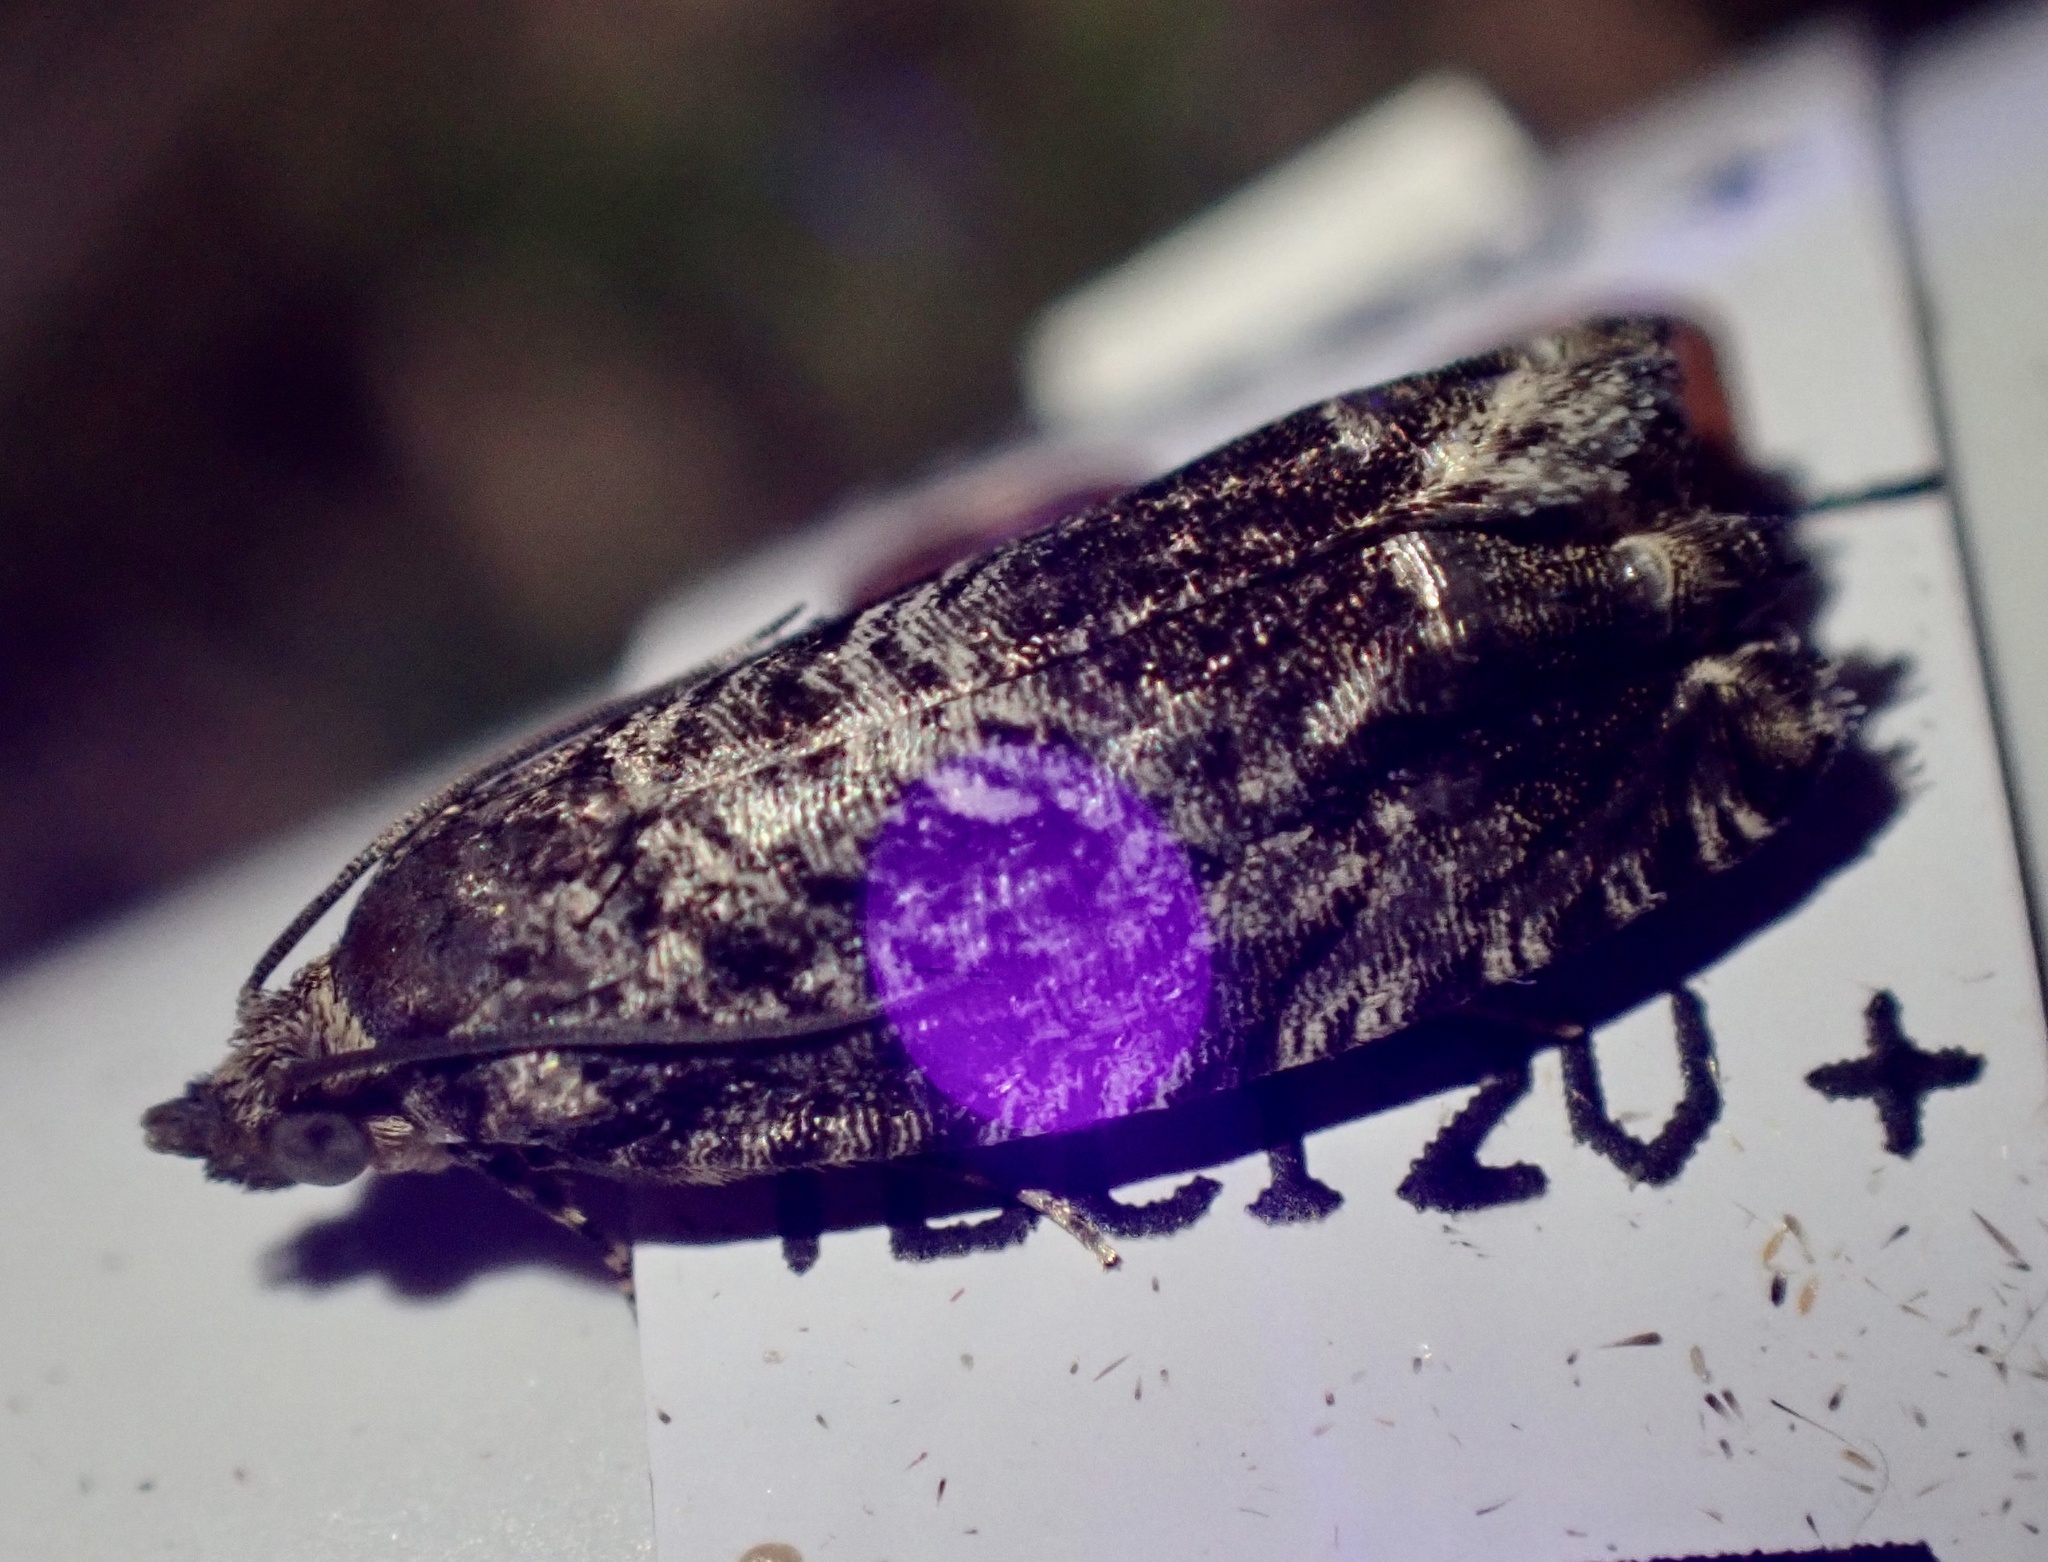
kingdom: Animalia
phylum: Arthropoda
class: Insecta
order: Lepidoptera
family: Tortricidae
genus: Cydia
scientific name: Cydia fagiglandana
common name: Large beech piercer
